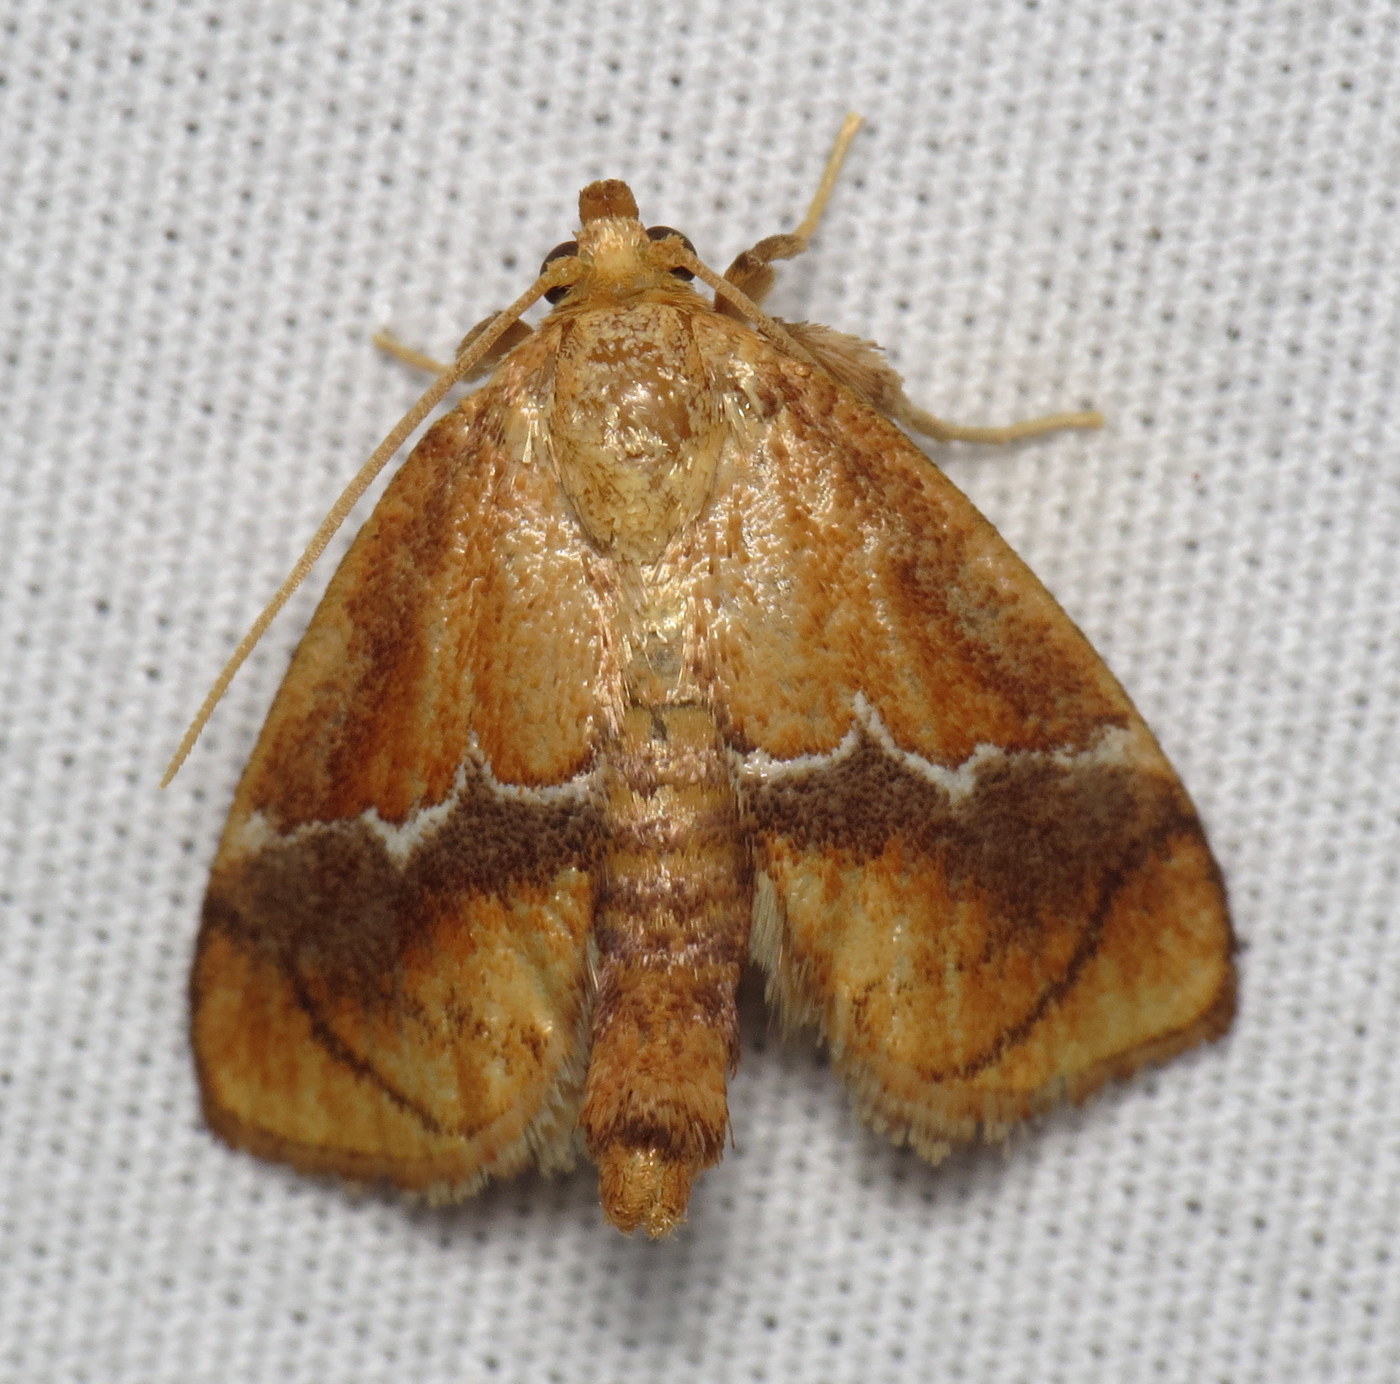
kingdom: Animalia
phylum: Arthropoda
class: Insecta
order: Lepidoptera
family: Limacodidae
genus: Lithacodes
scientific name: Lithacodes fasciola
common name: Yellow-shouldered slug moth
